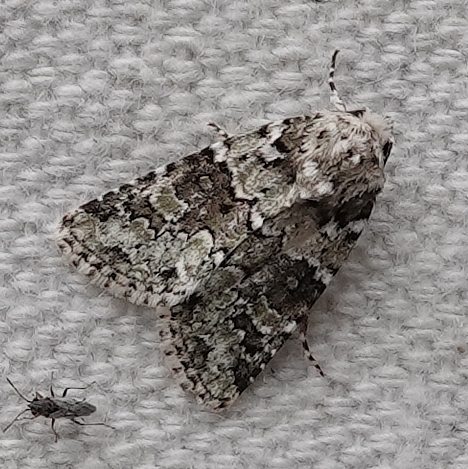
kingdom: Animalia
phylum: Arthropoda
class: Insecta
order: Lepidoptera
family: Noctuidae
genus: Lacinipolia
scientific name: Lacinipolia strigicollis
